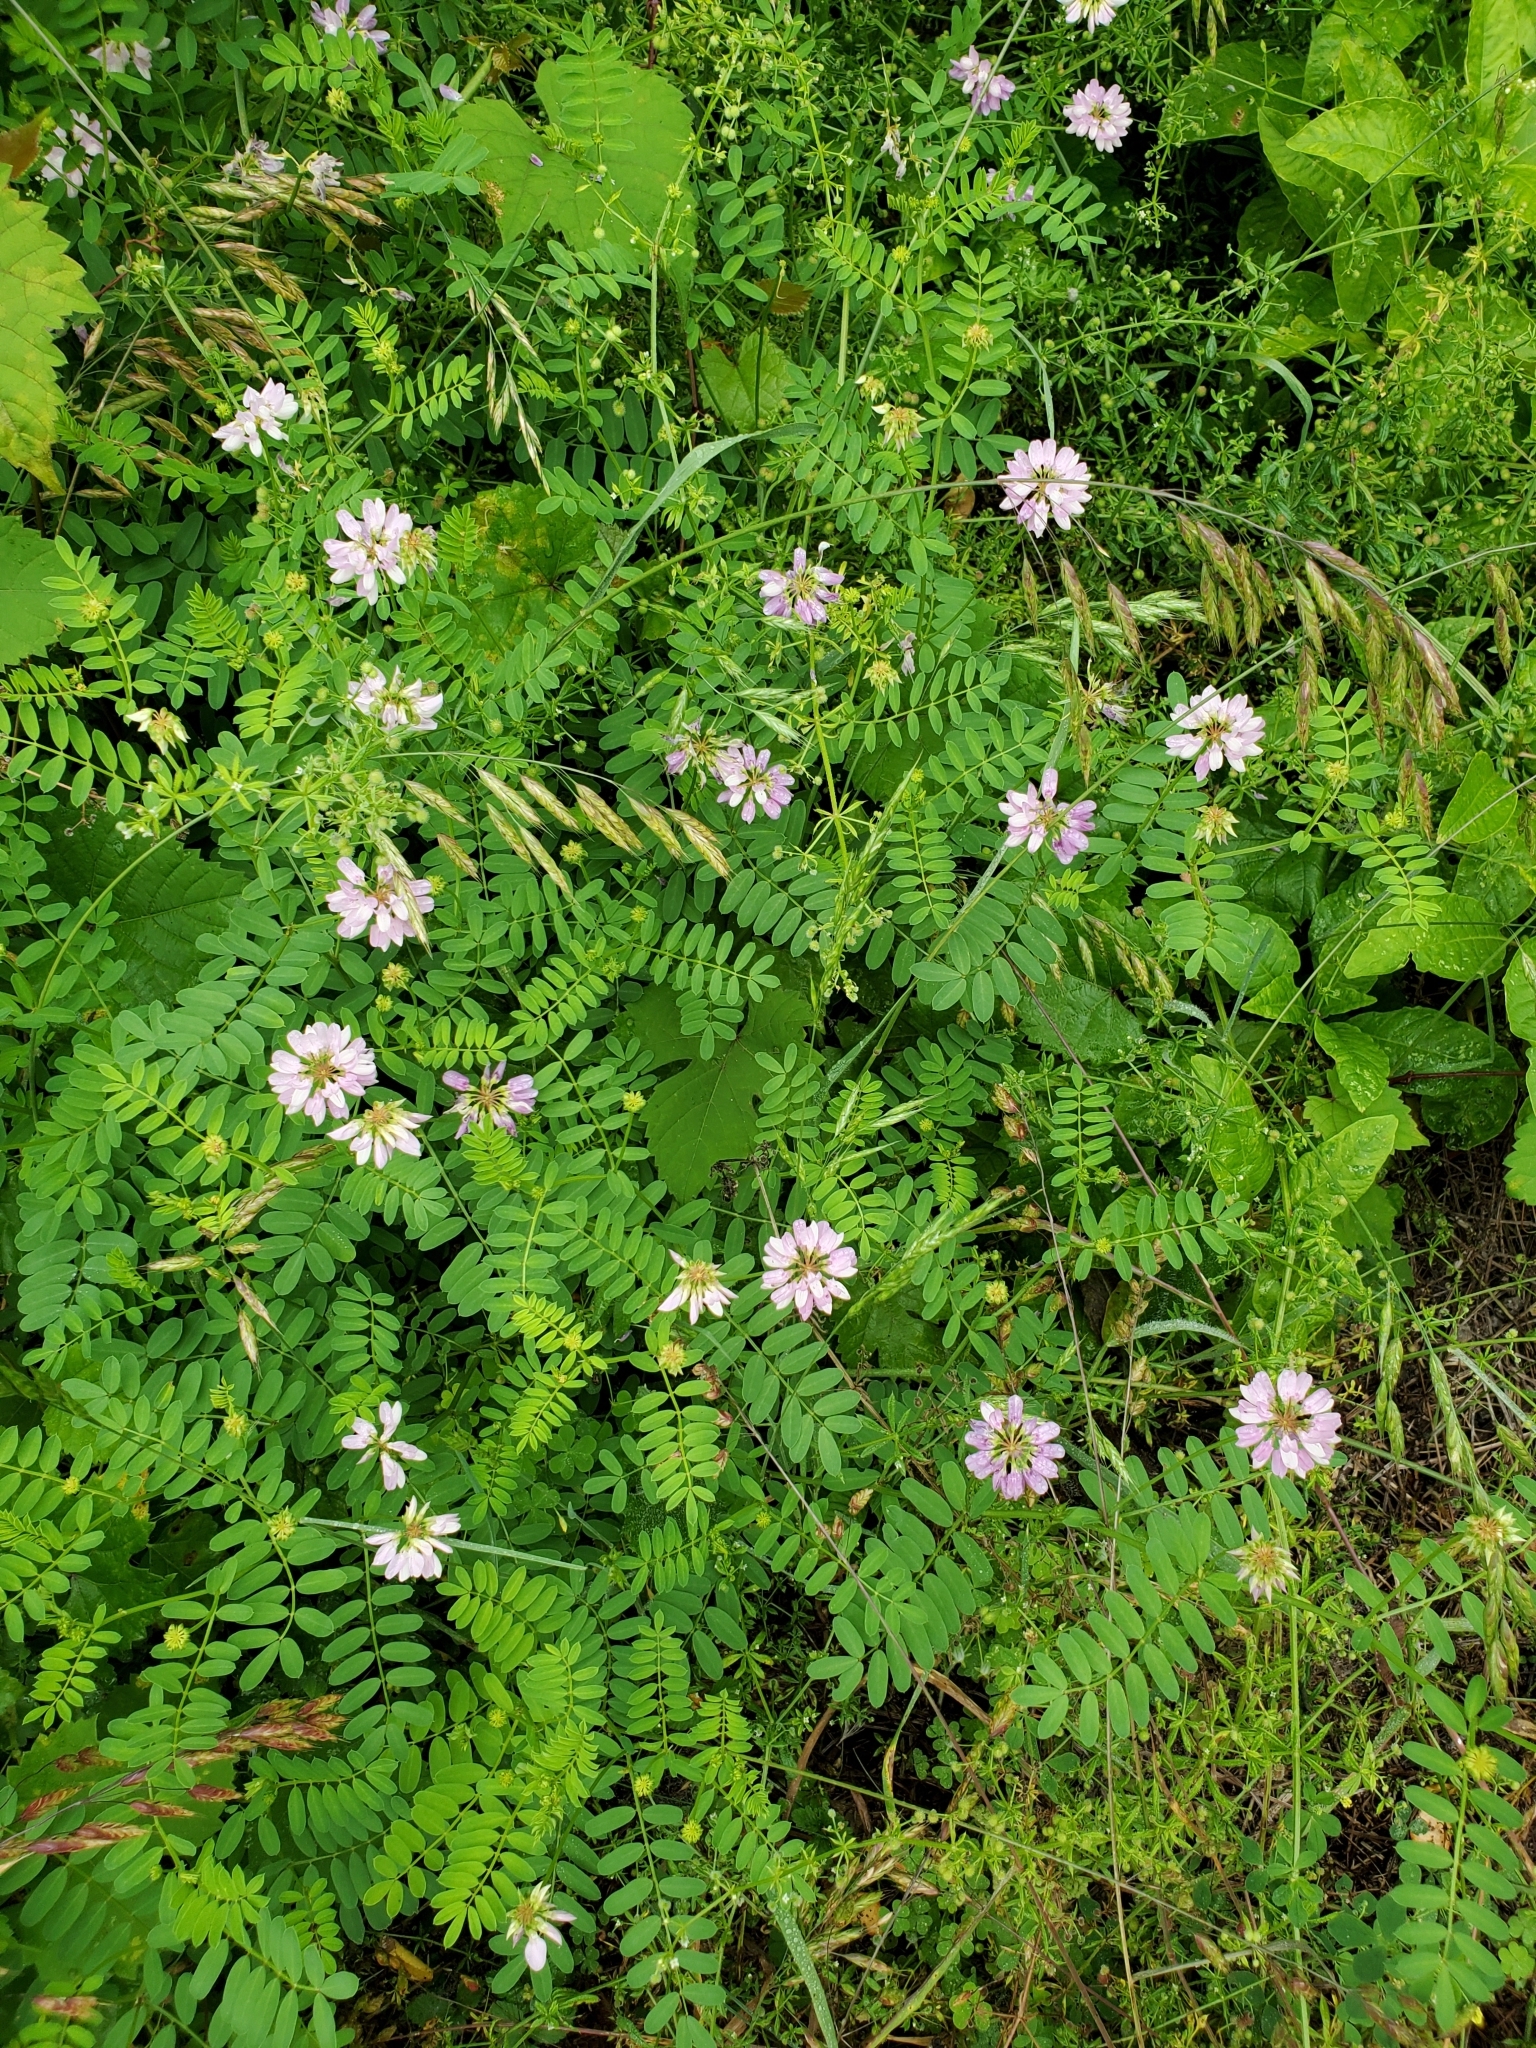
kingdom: Plantae
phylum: Tracheophyta
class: Magnoliopsida
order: Fabales
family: Fabaceae
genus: Coronilla
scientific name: Coronilla varia
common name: Crownvetch
